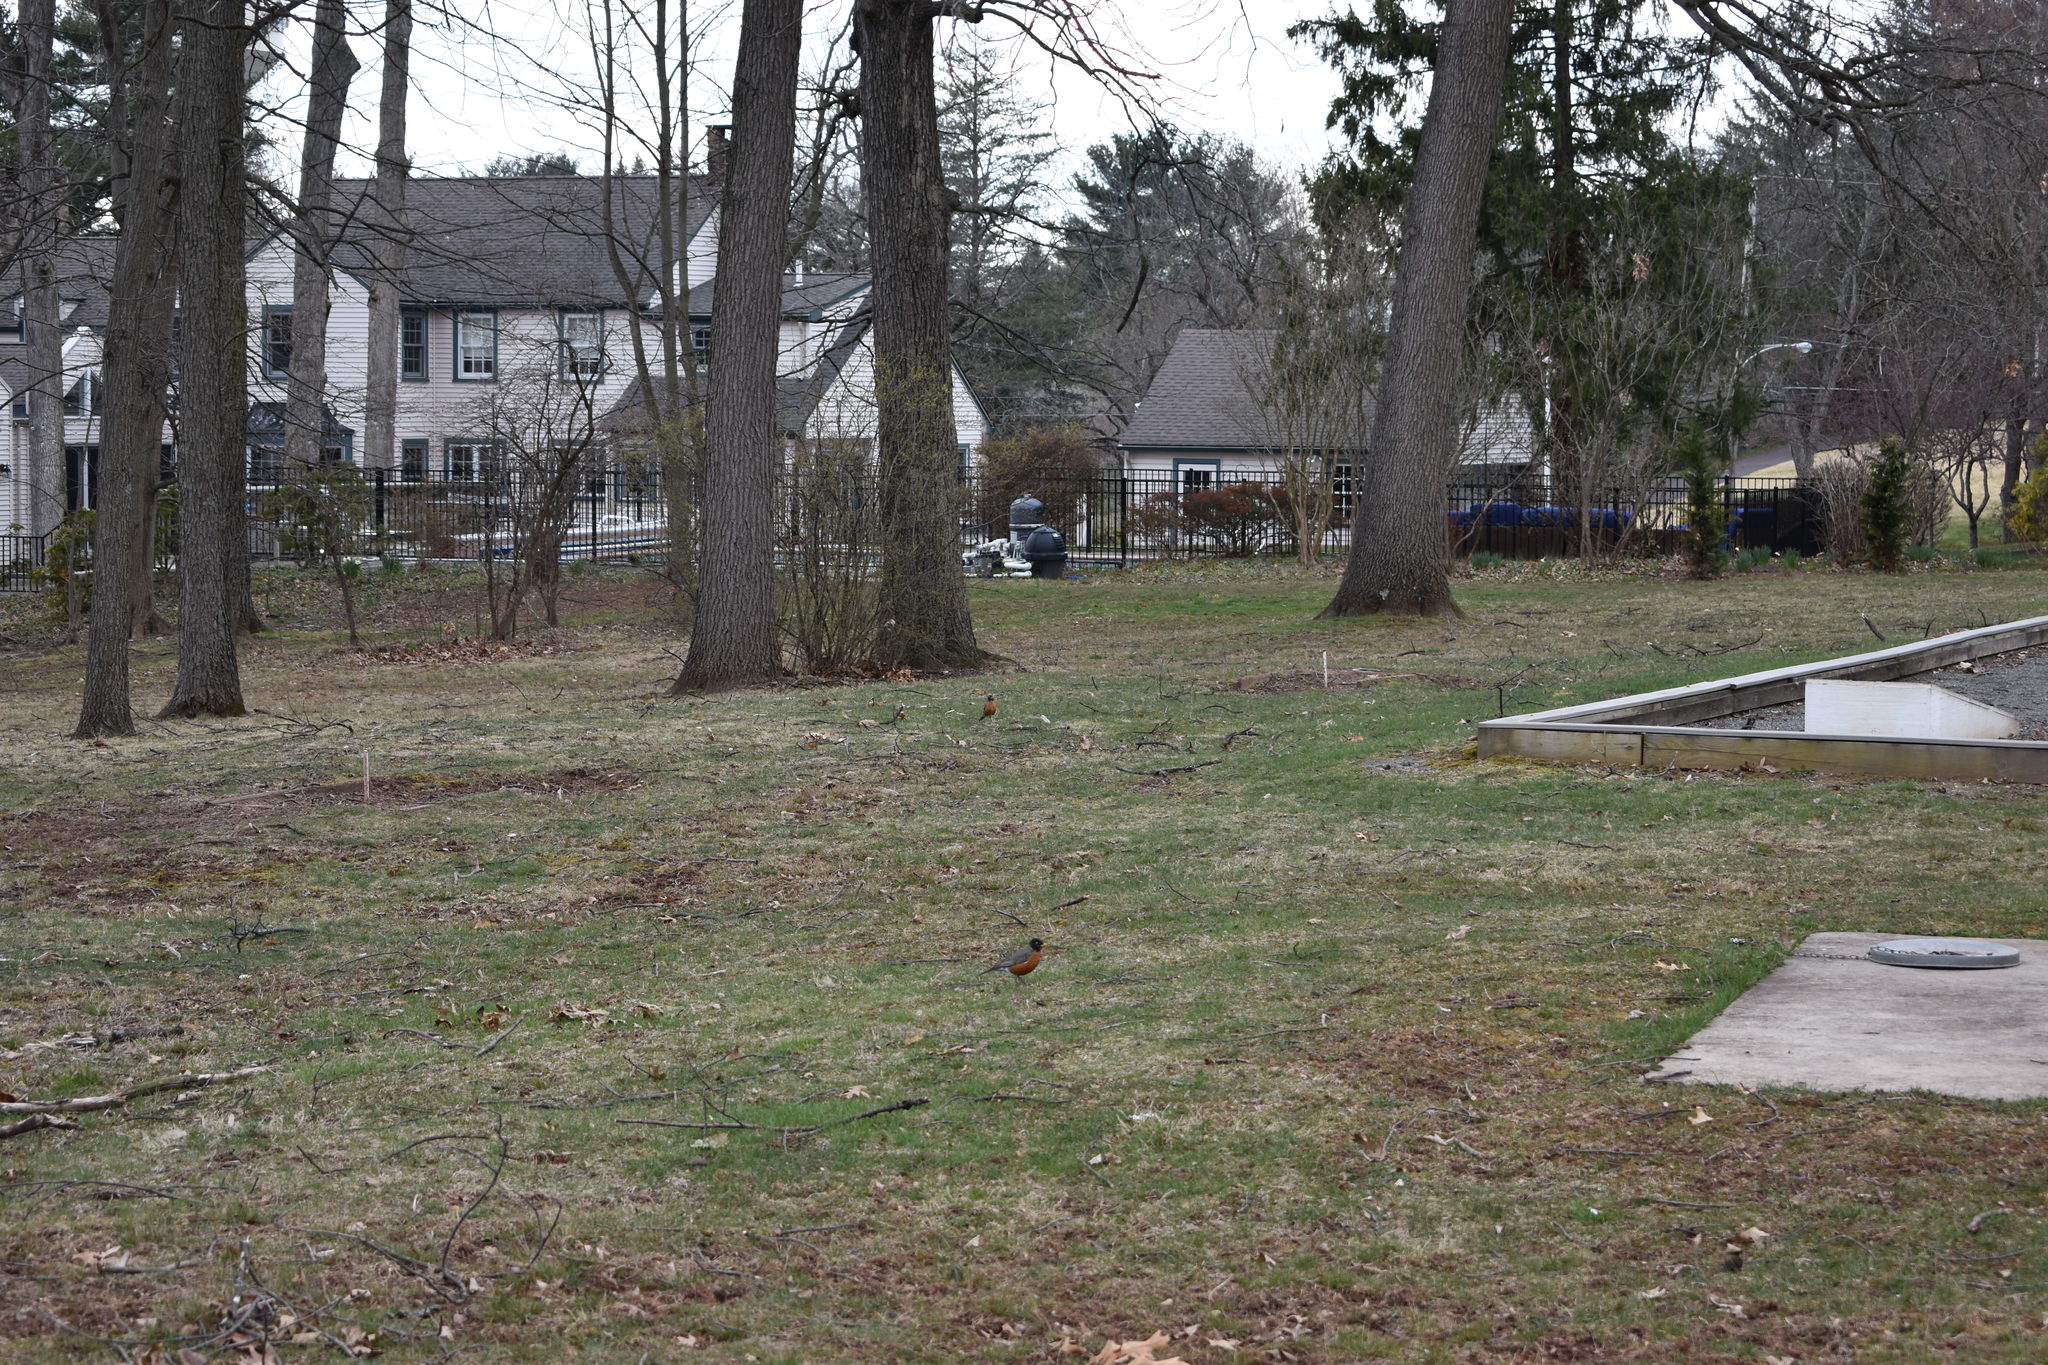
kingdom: Animalia
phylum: Chordata
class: Aves
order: Passeriformes
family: Turdidae
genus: Turdus
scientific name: Turdus migratorius
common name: American robin
